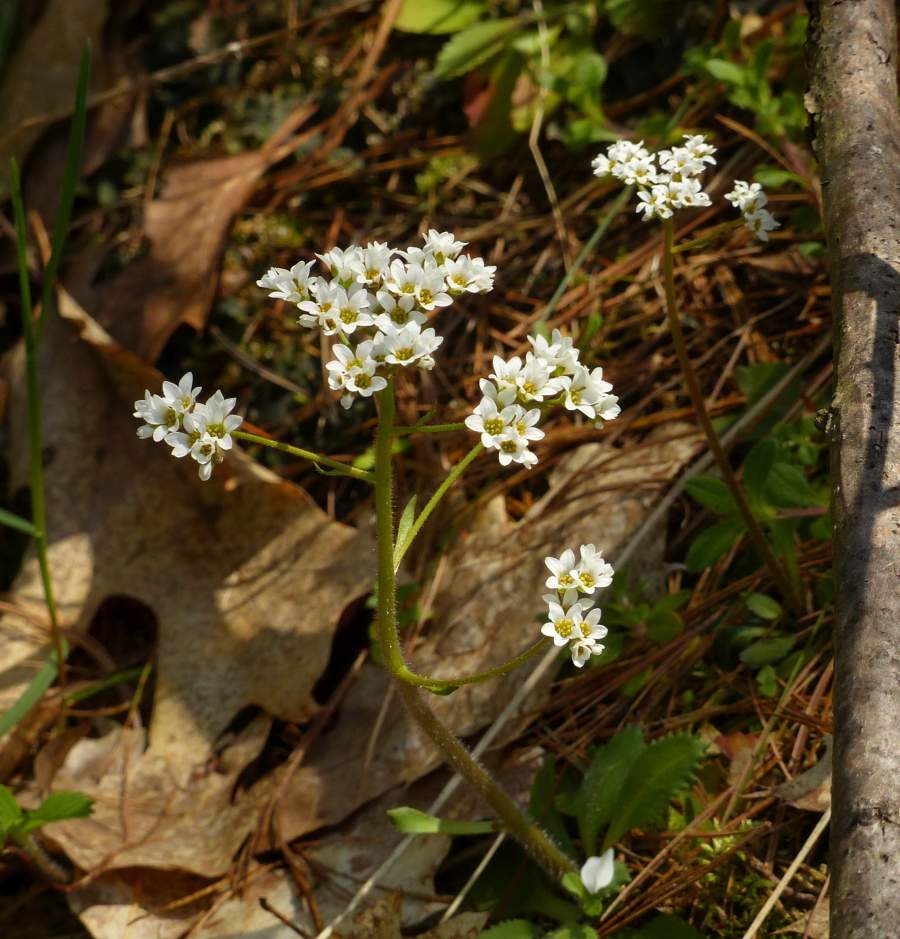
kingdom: Plantae
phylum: Tracheophyta
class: Magnoliopsida
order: Saxifragales
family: Saxifragaceae
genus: Micranthes
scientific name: Micranthes virginiensis
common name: Early saxifrage
